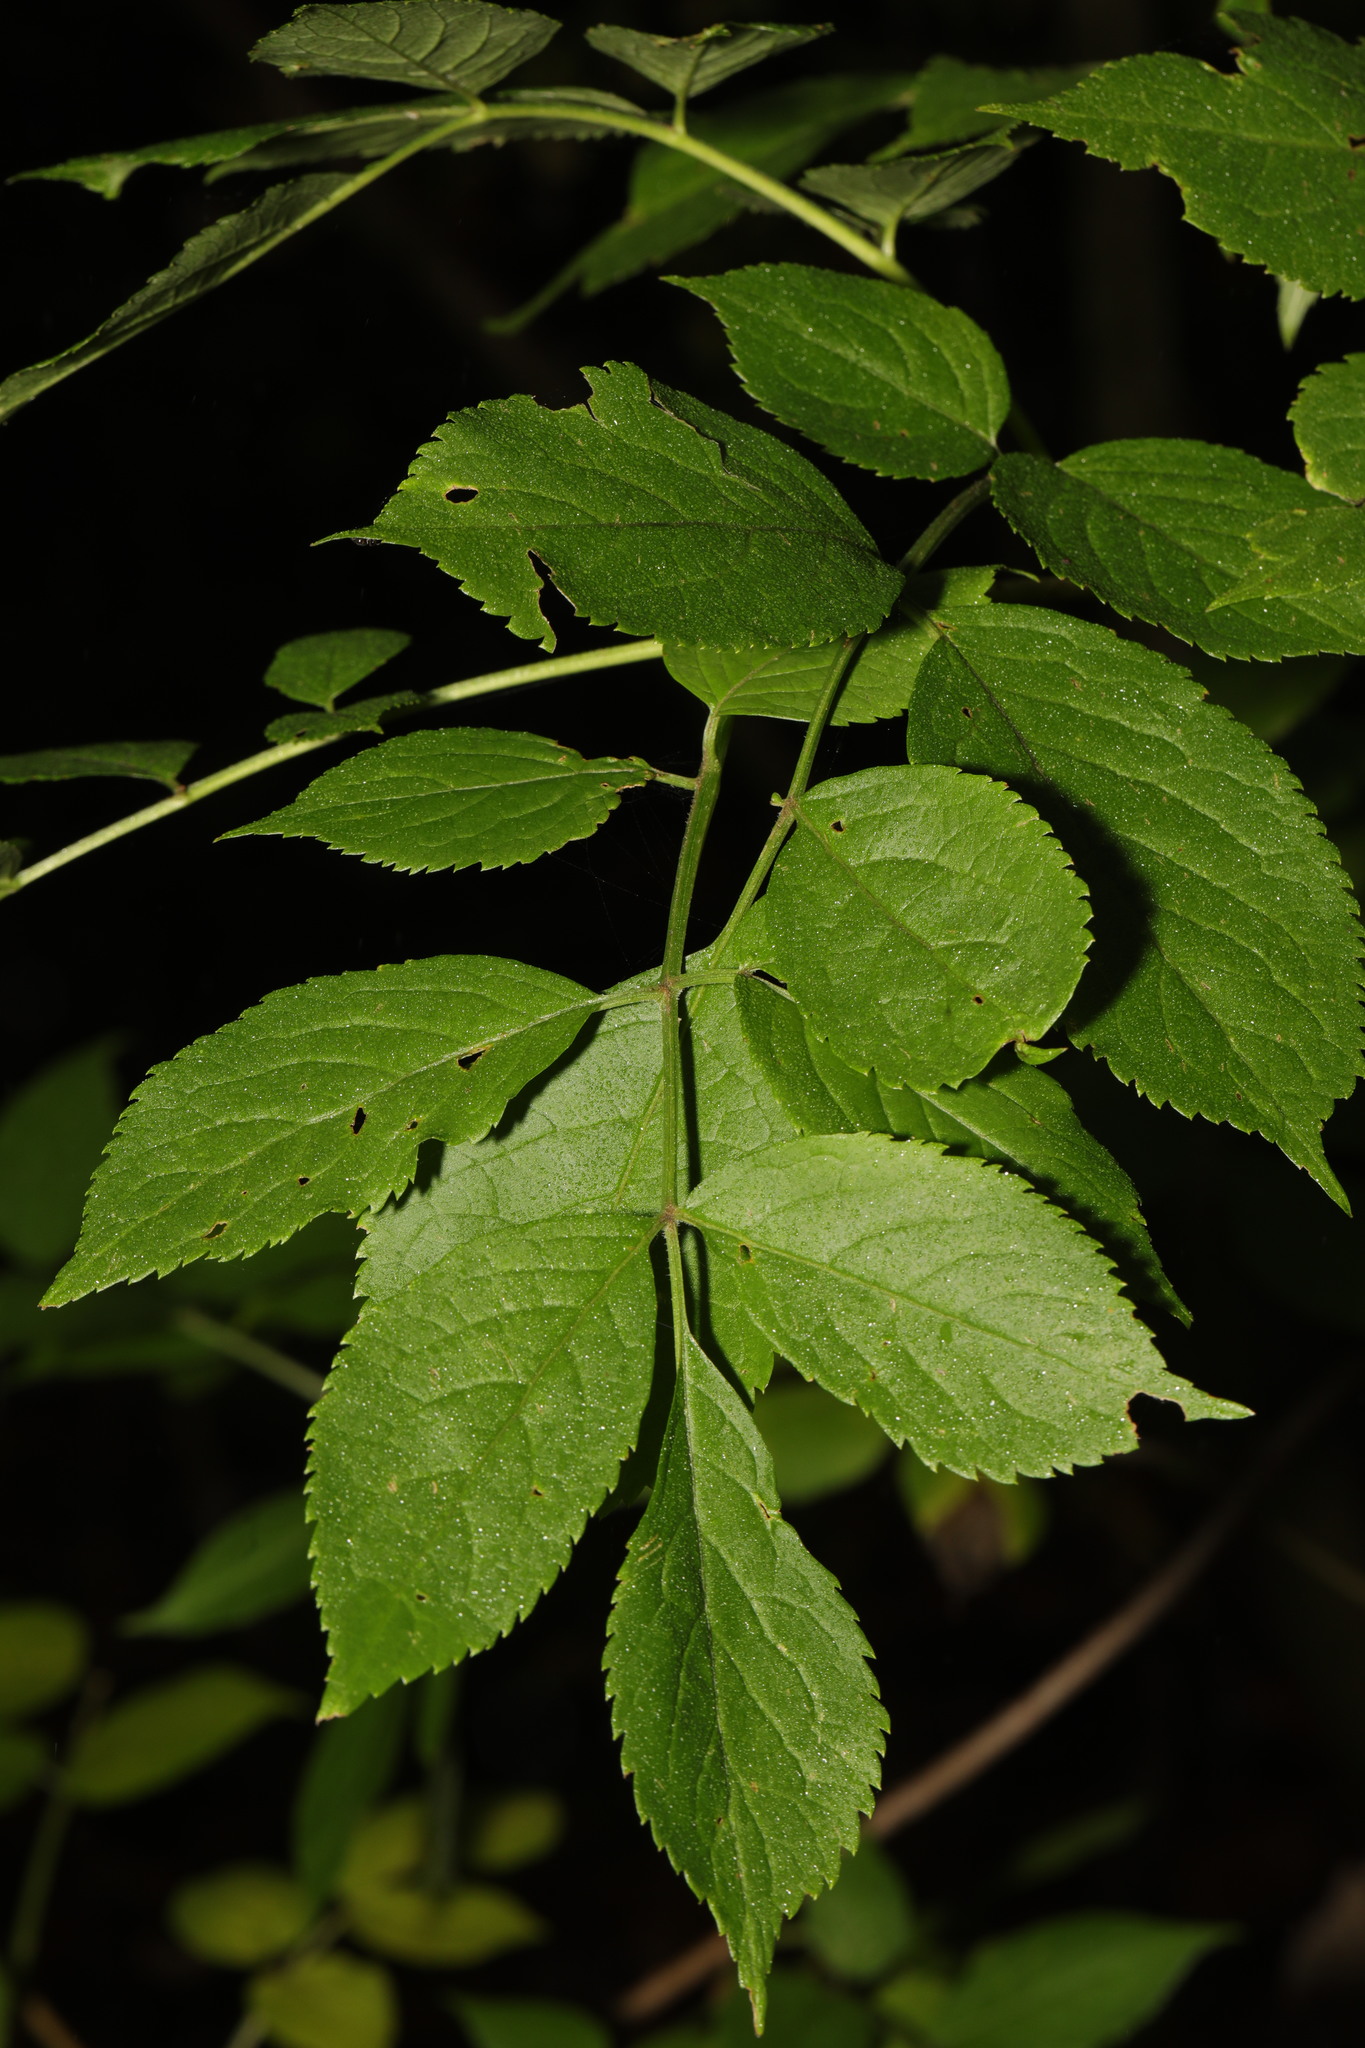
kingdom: Plantae
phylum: Tracheophyta
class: Magnoliopsida
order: Dipsacales
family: Viburnaceae
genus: Sambucus
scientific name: Sambucus nigra
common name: Elder
